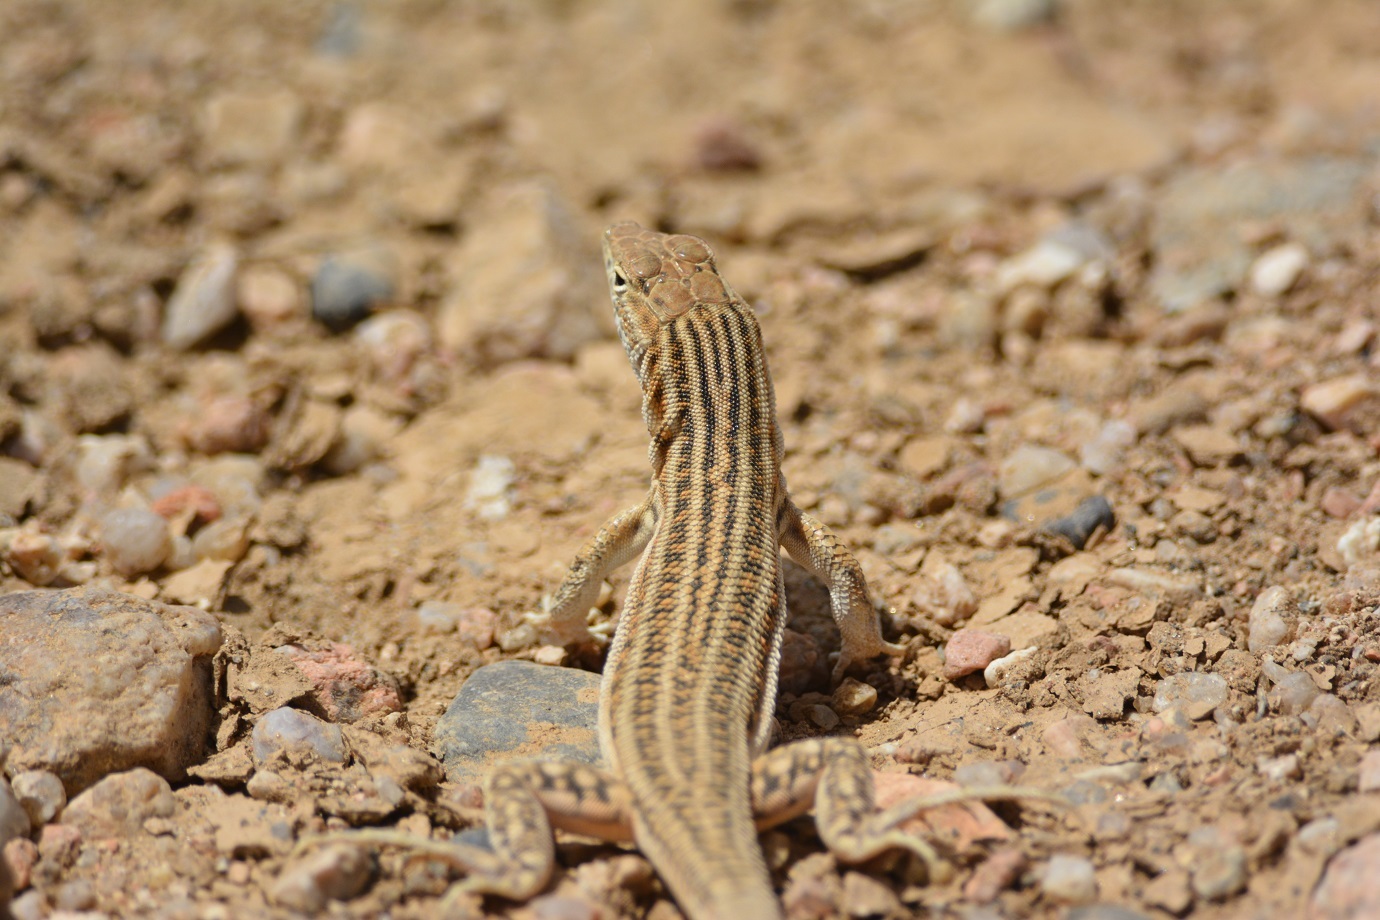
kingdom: Animalia
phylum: Chordata
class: Squamata
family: Lacertidae
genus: Acanthodactylus
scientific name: Acanthodactylus boskianus
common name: Bosc’s fringe-toed lizard
